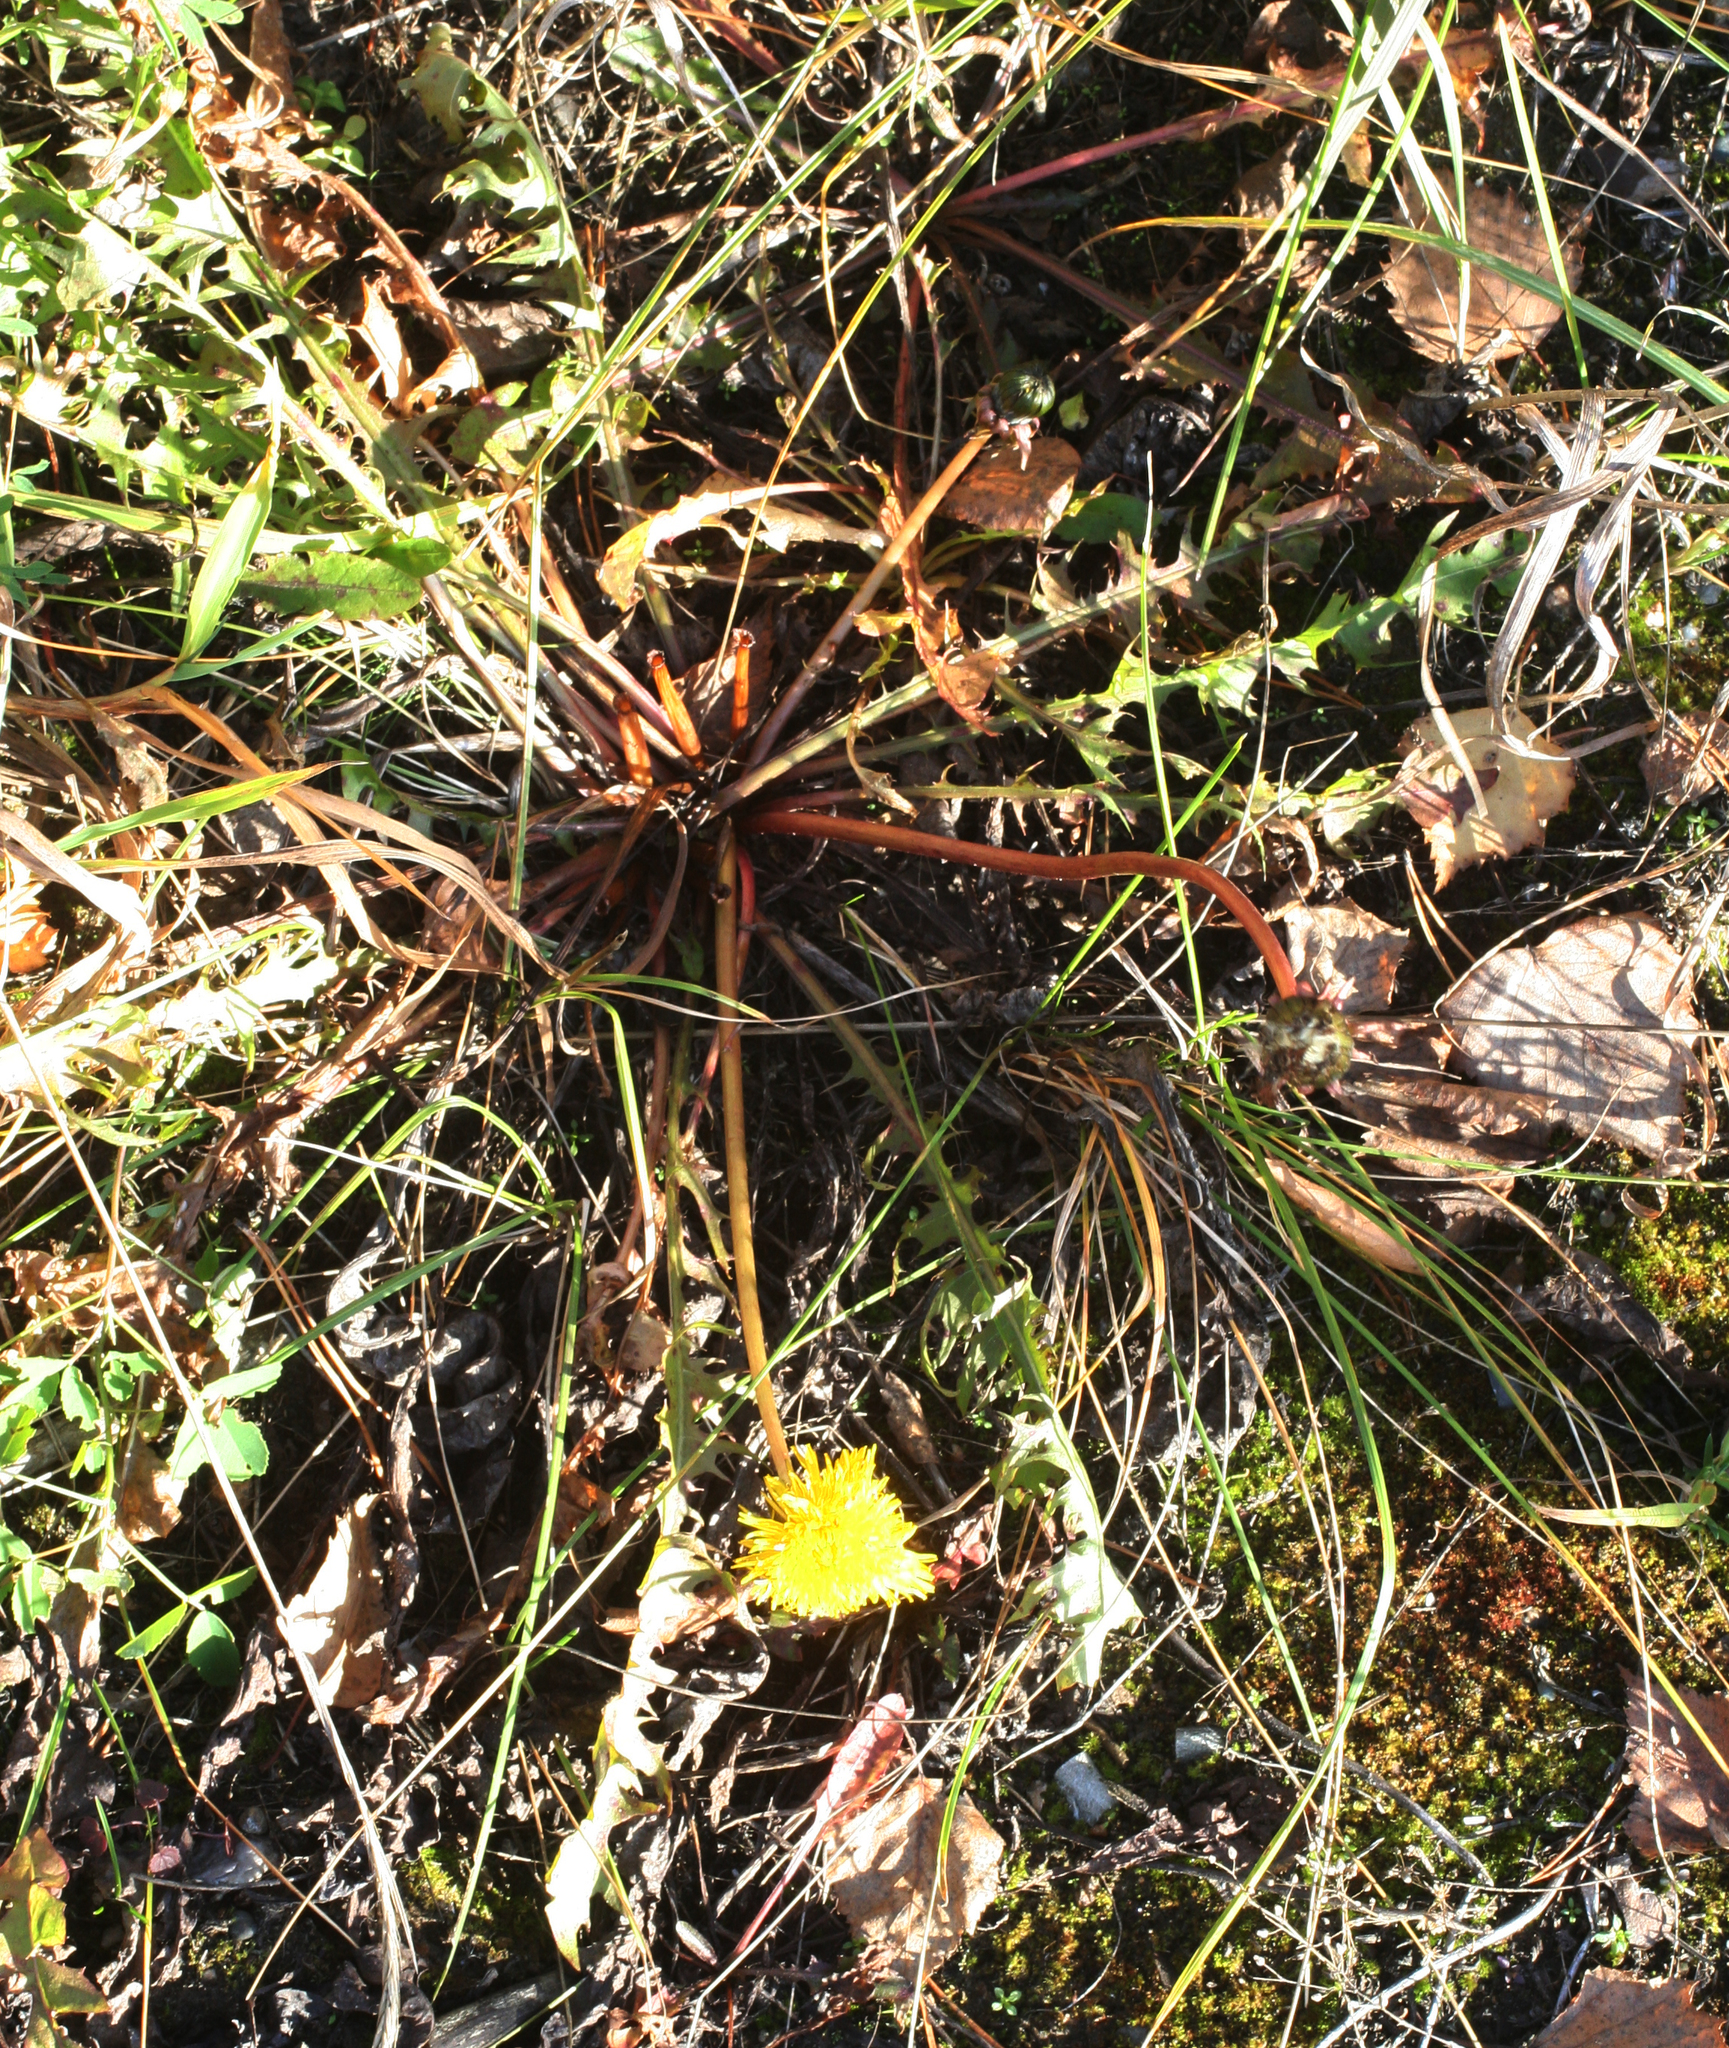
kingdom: Plantae
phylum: Tracheophyta
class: Magnoliopsida
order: Asterales
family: Asteraceae
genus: Taraxacum
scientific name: Taraxacum officinale
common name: Common dandelion
